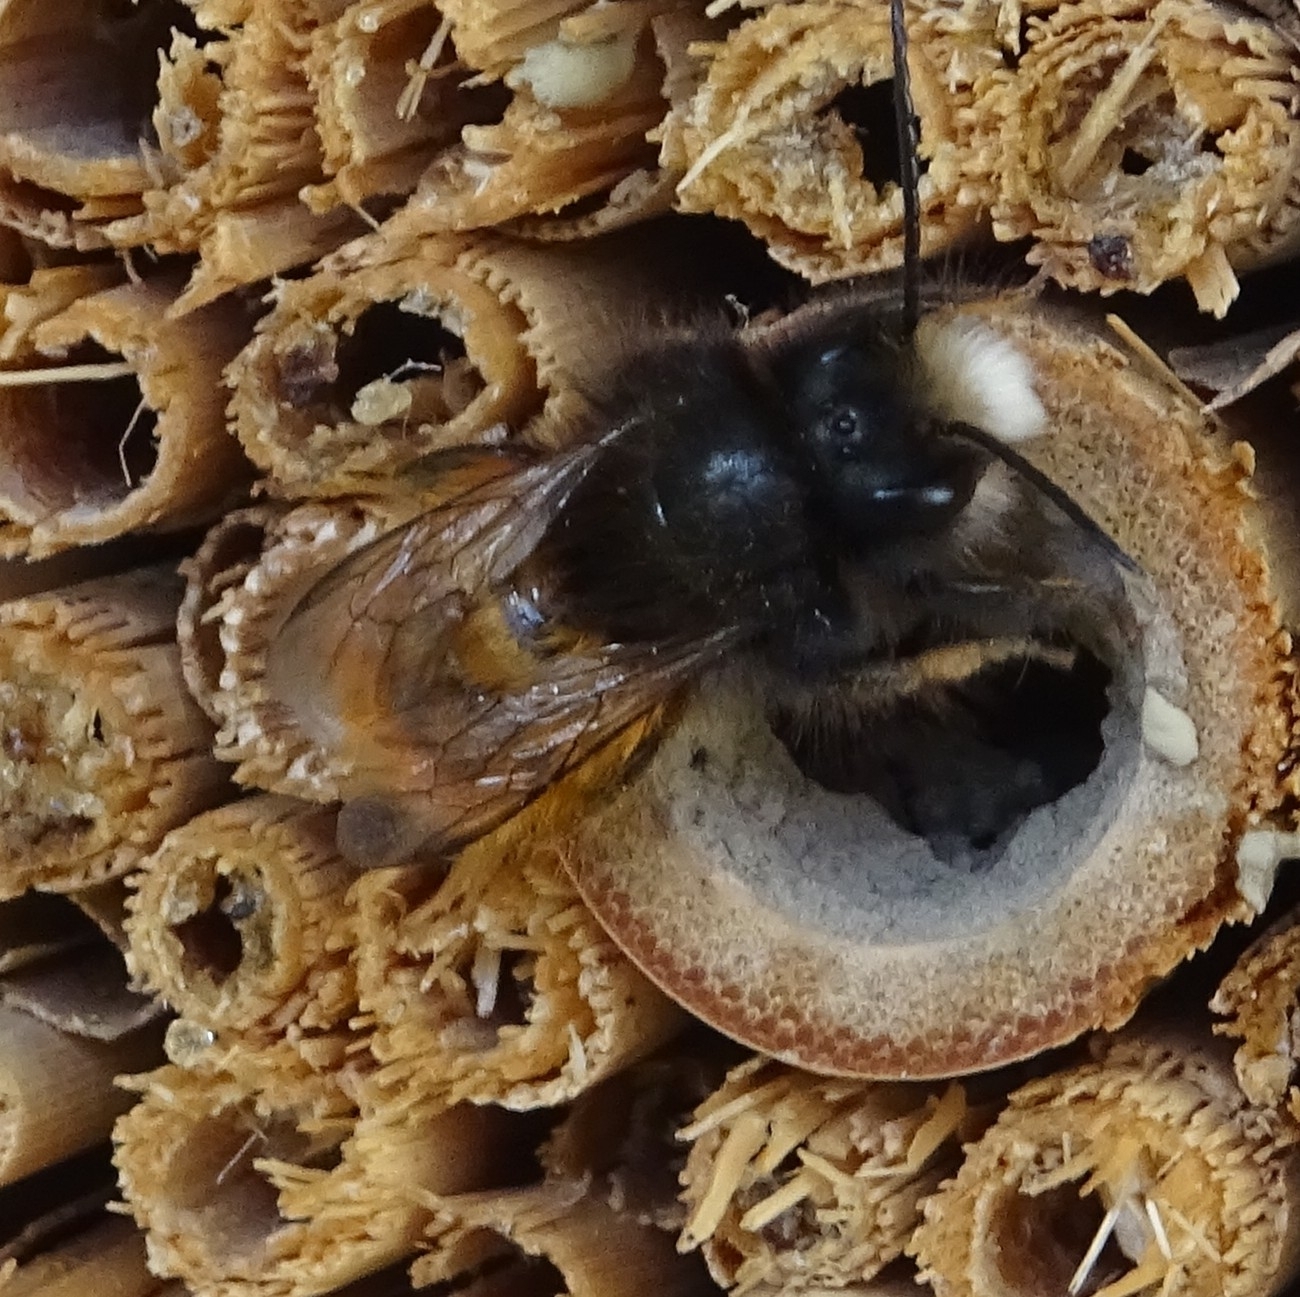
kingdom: Animalia
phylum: Arthropoda
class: Insecta
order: Hymenoptera
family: Megachilidae
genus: Osmia
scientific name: Osmia cornuta
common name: Mason bee
